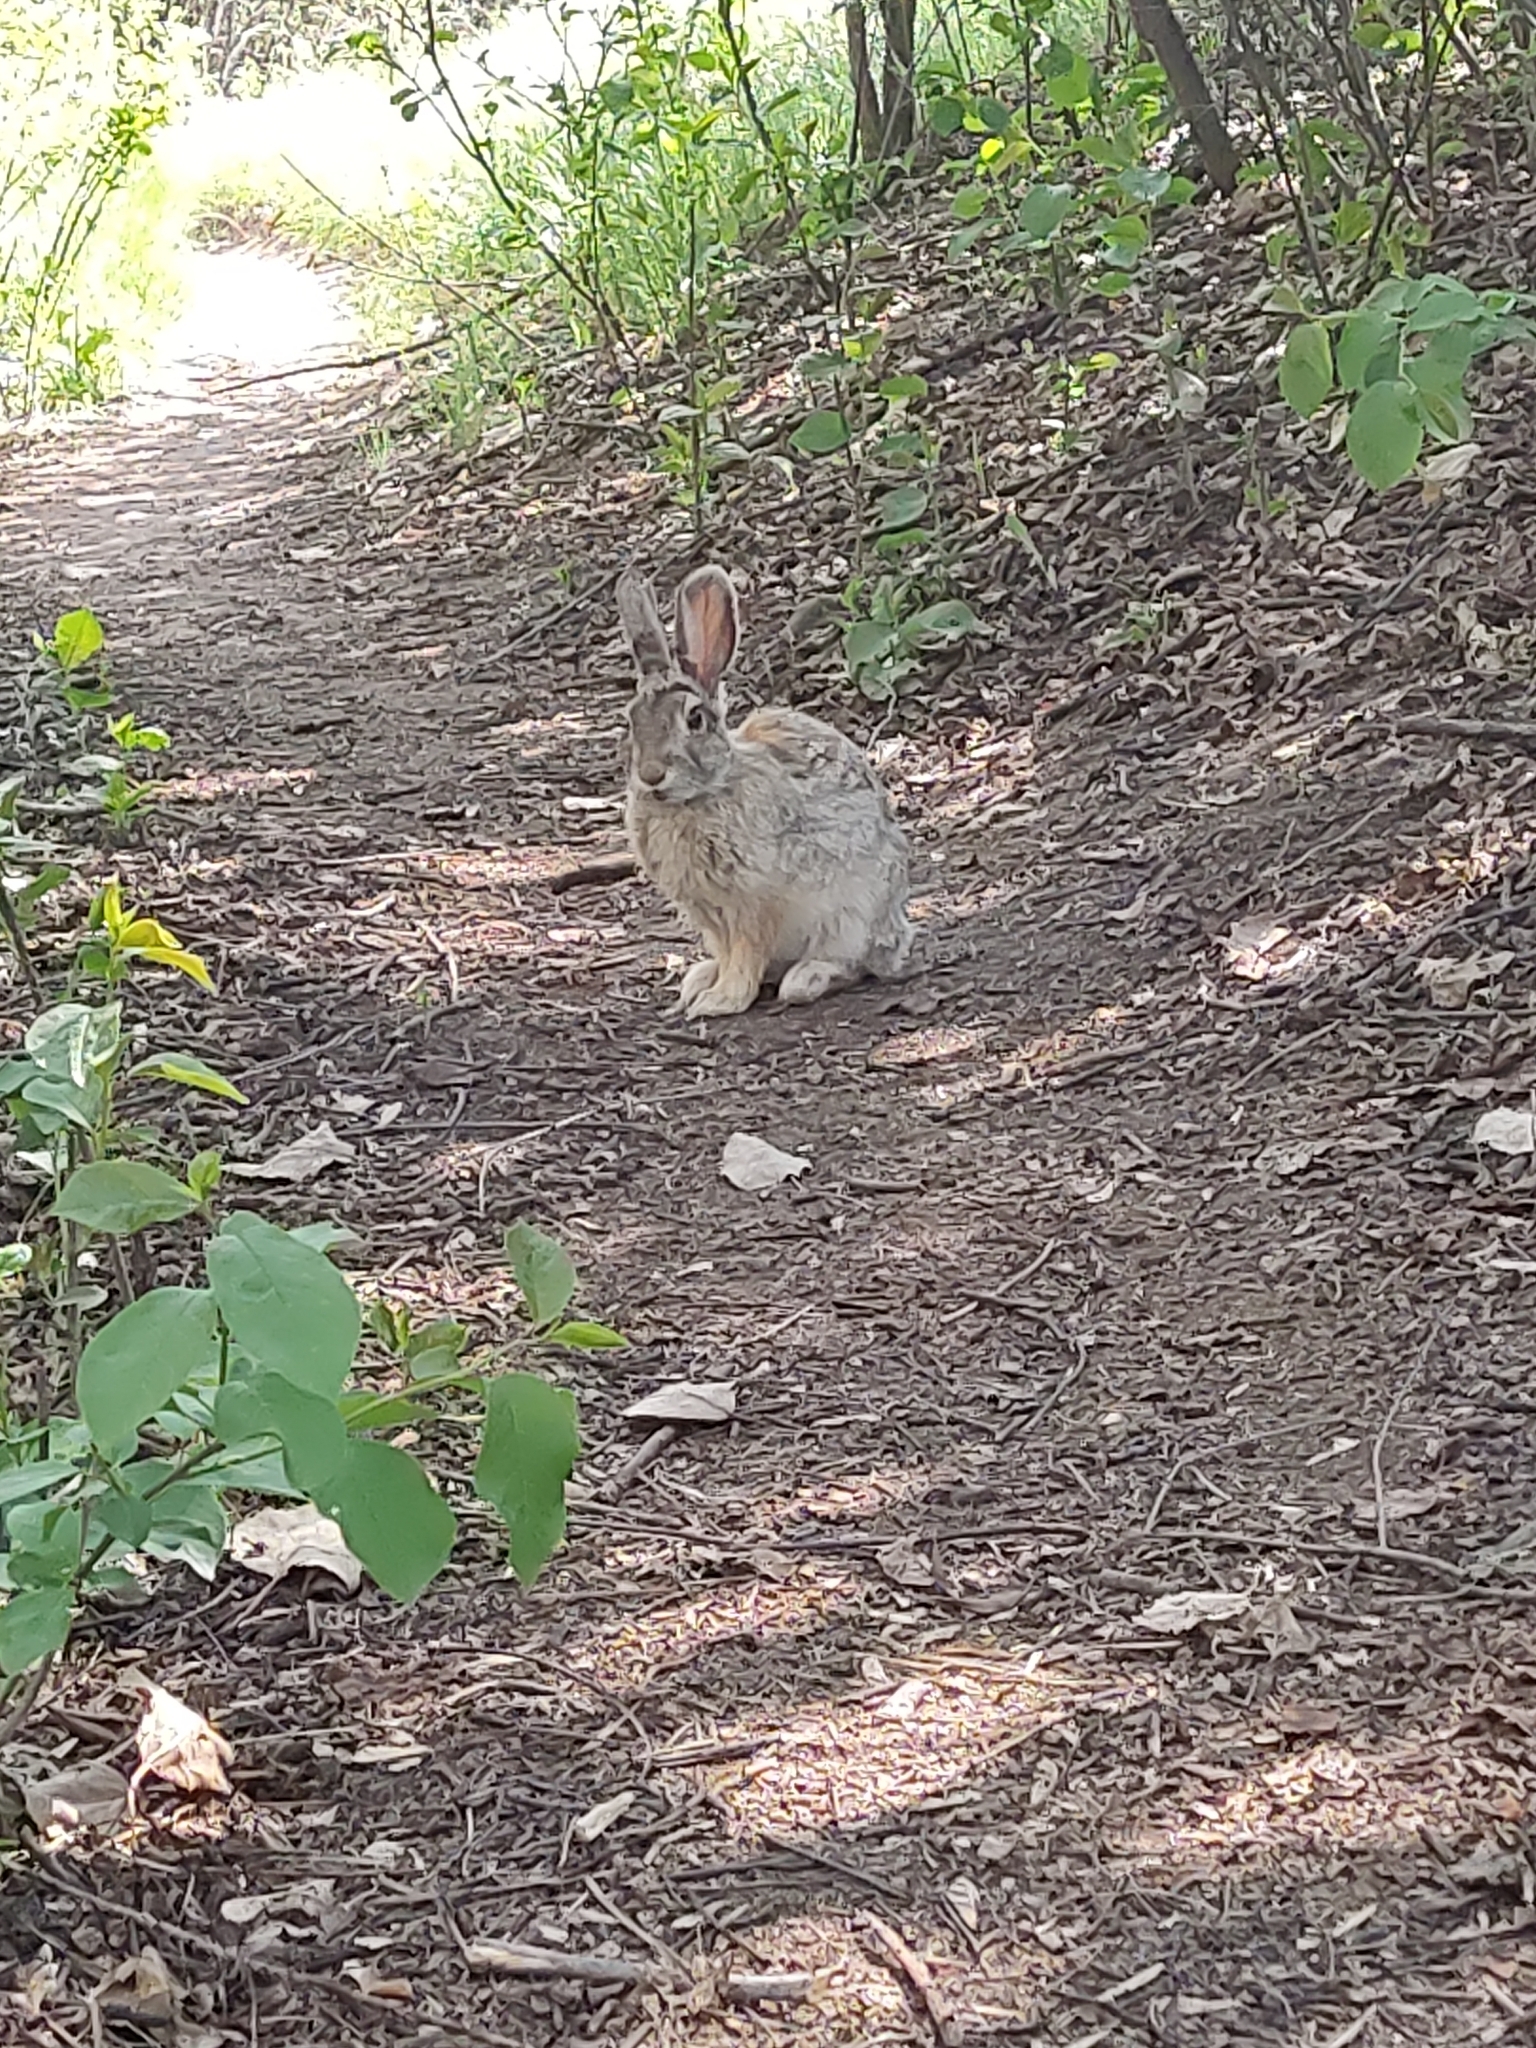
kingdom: Animalia
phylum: Chordata
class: Mammalia
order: Lagomorpha
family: Leporidae
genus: Sylvilagus
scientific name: Sylvilagus nuttallii
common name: Mountain cottontail
